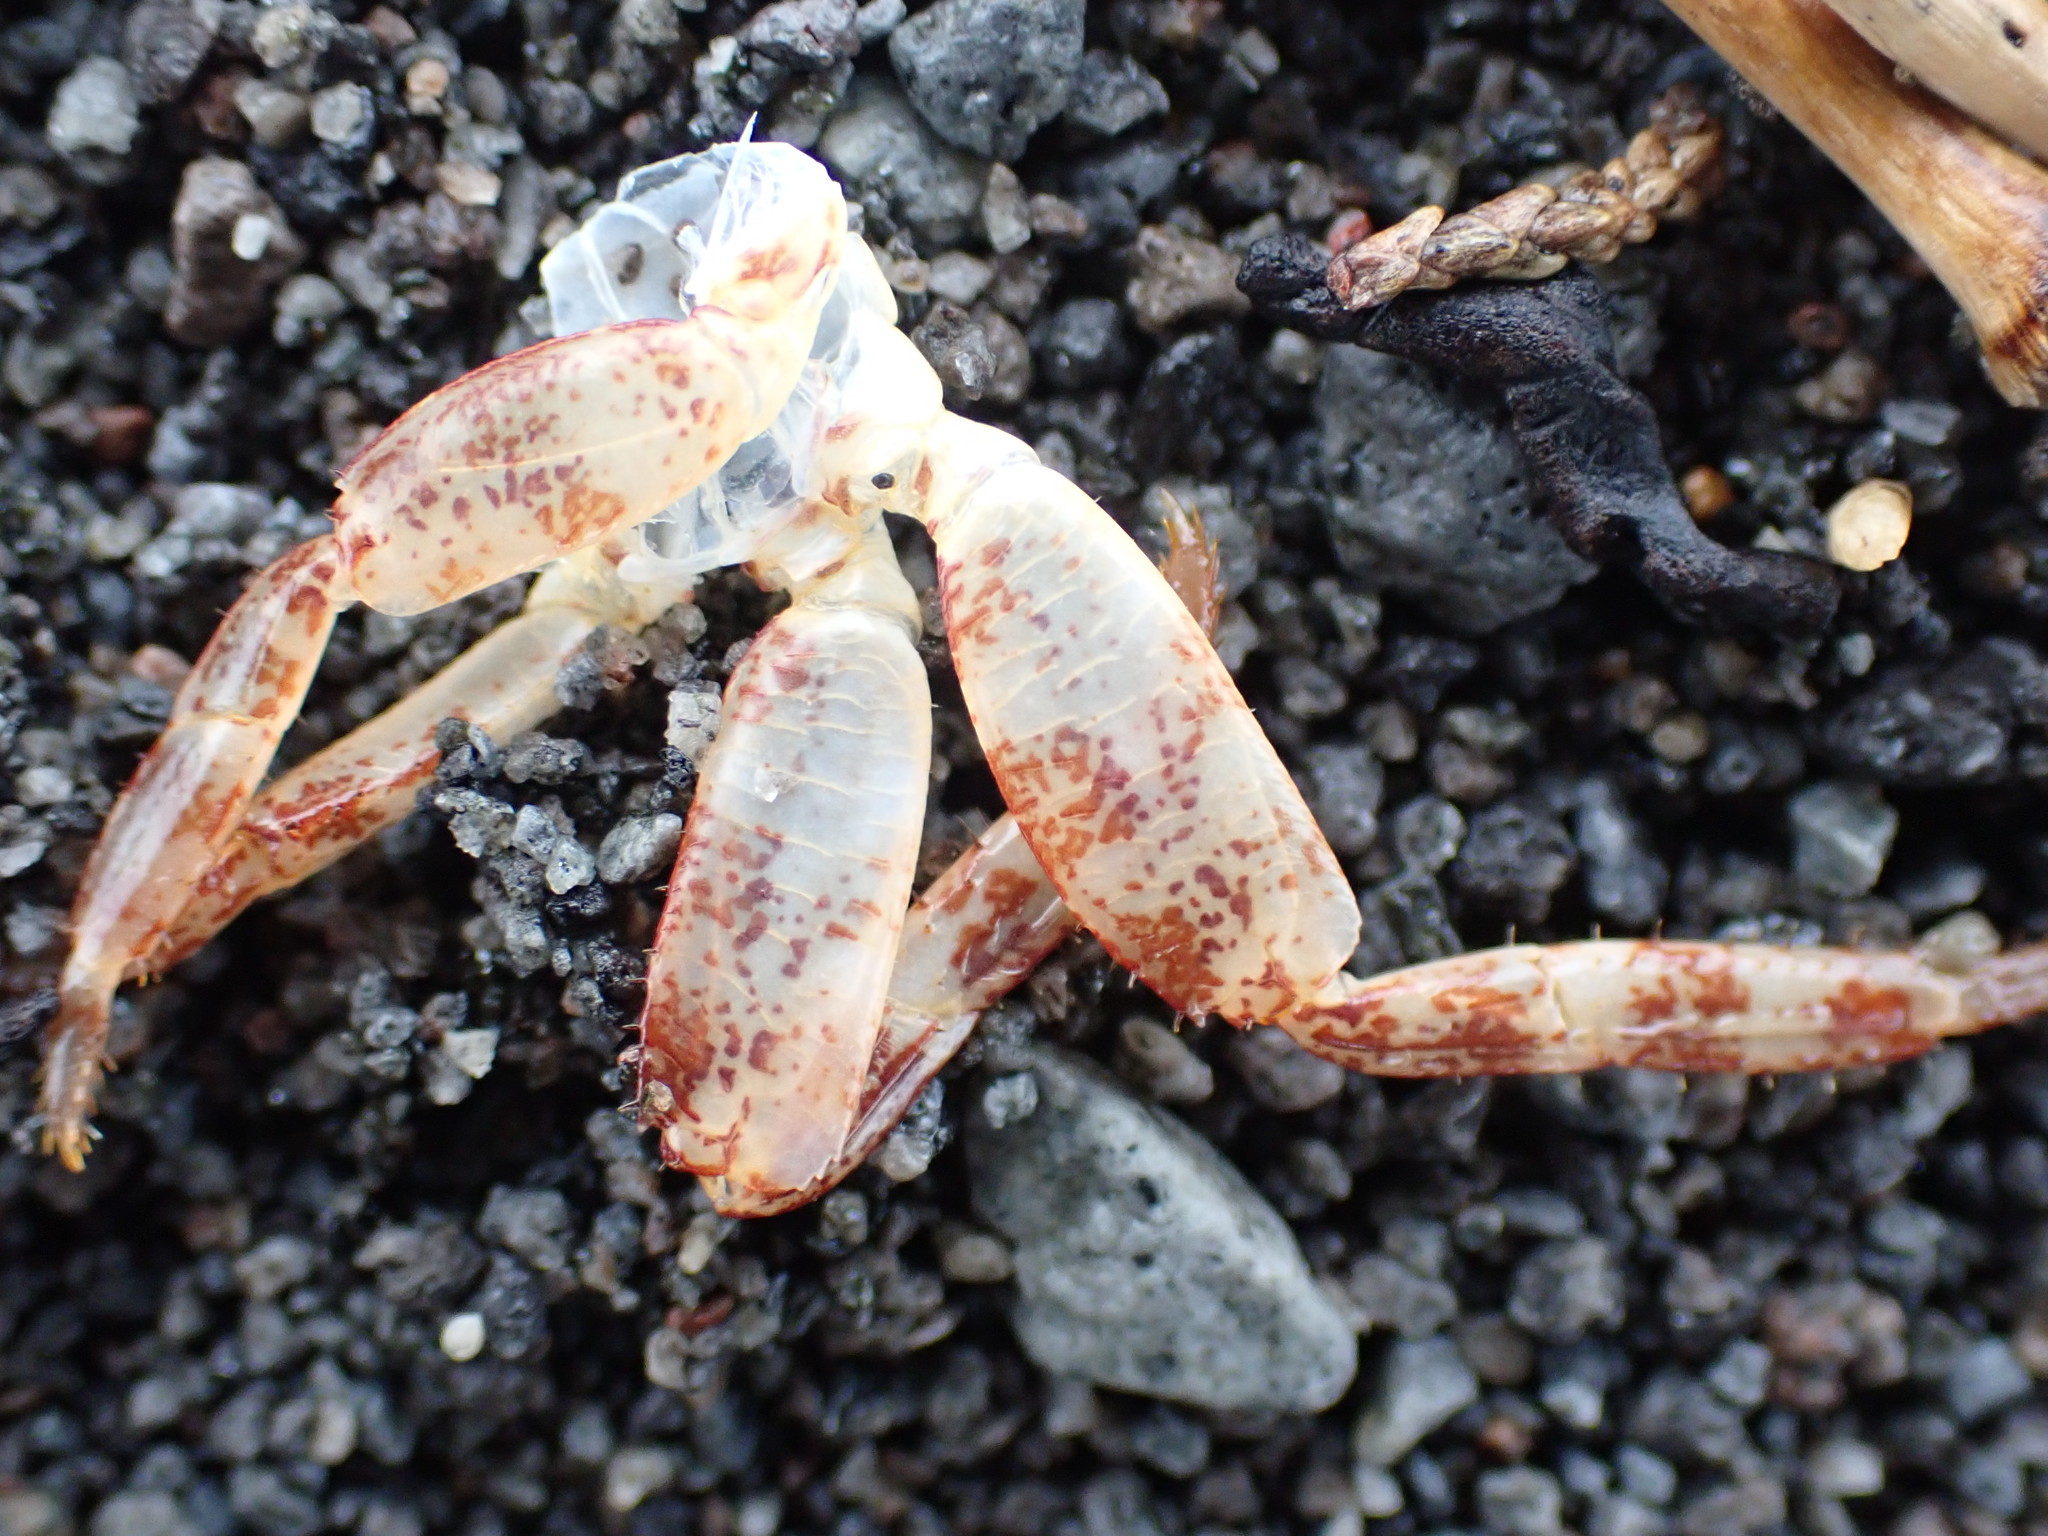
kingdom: Animalia
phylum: Arthropoda
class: Malacostraca
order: Decapoda
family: Grapsidae
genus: Leptograpsus
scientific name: Leptograpsus variegatus
